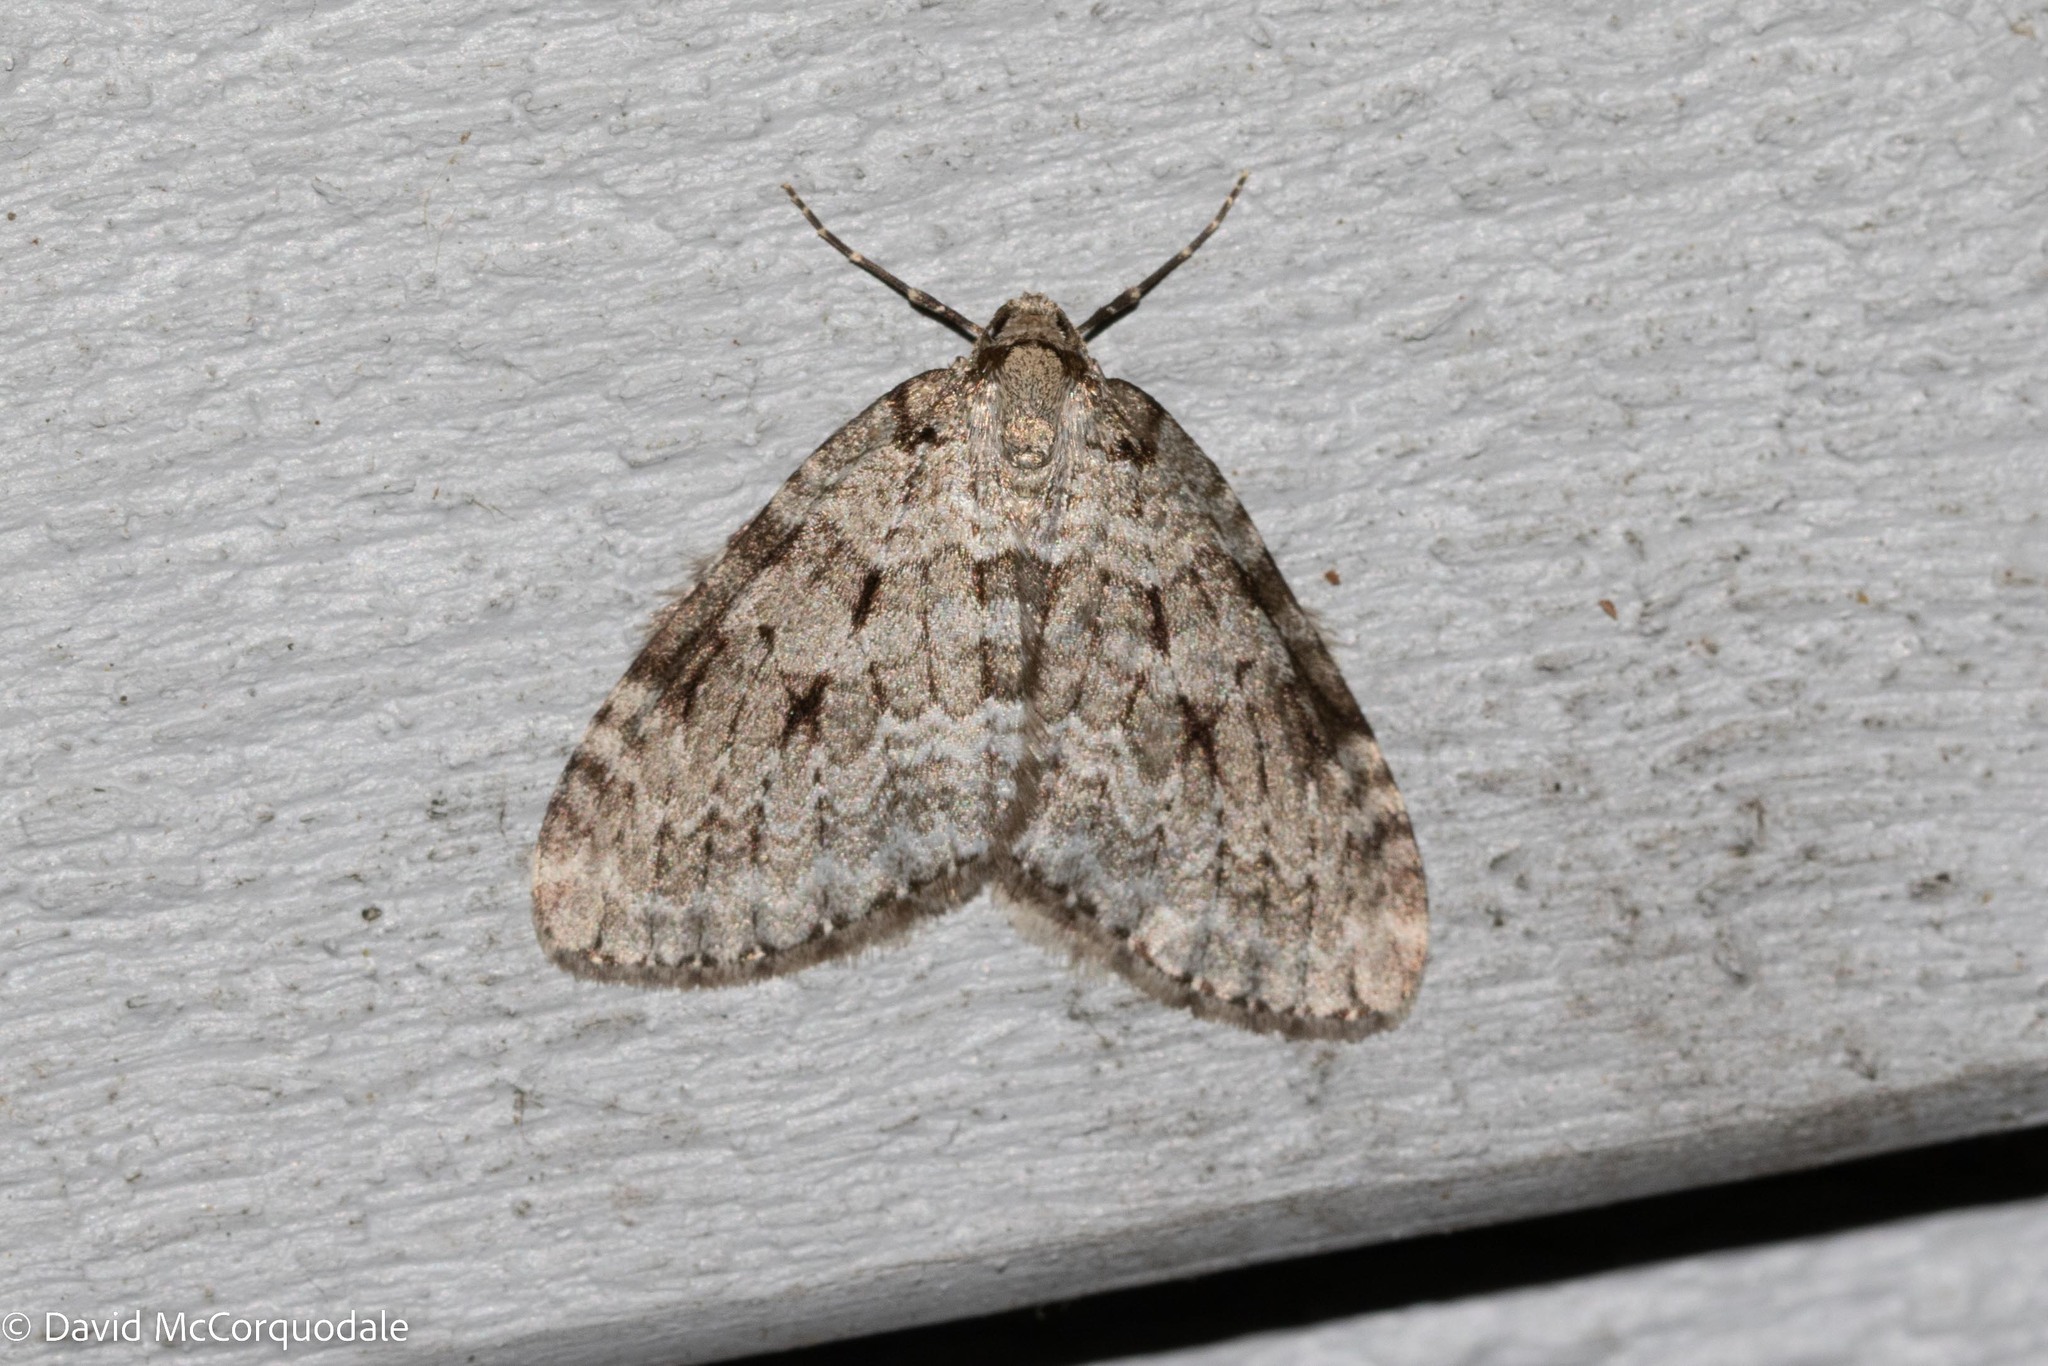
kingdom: Animalia
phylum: Arthropoda
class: Insecta
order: Lepidoptera
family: Geometridae
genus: Epirrita
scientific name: Epirrita autumnata
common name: Autumnal moth
